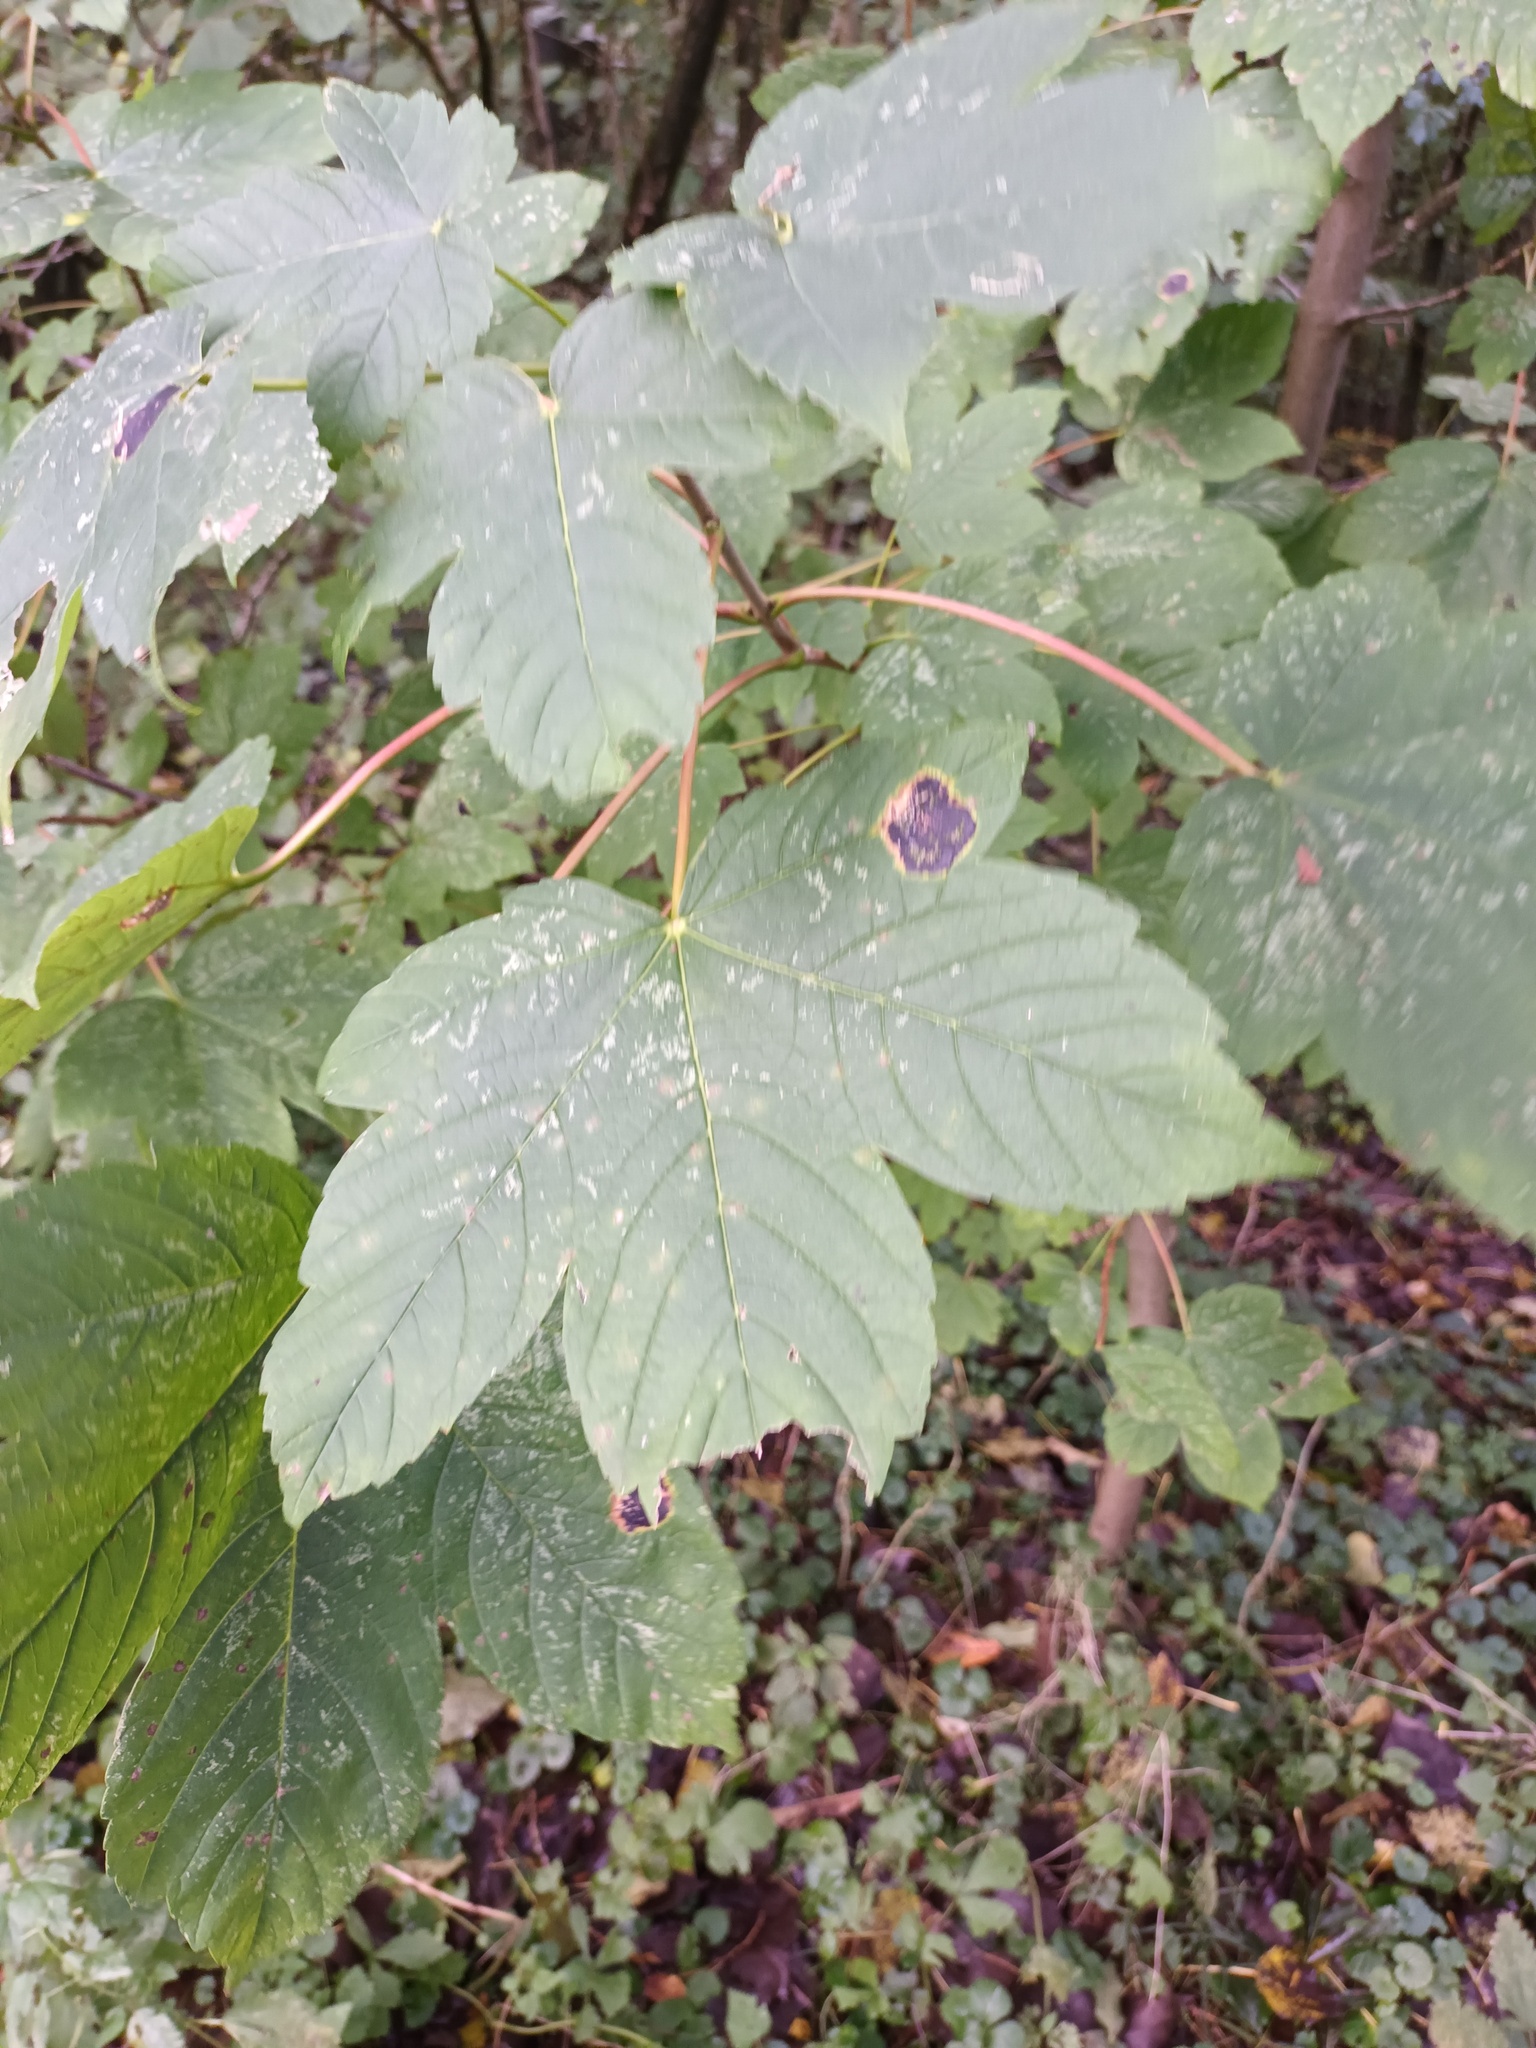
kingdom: Fungi
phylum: Ascomycota
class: Leotiomycetes
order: Rhytismatales
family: Rhytismataceae
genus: Rhytisma
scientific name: Rhytisma acerinum
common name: European tar spot
